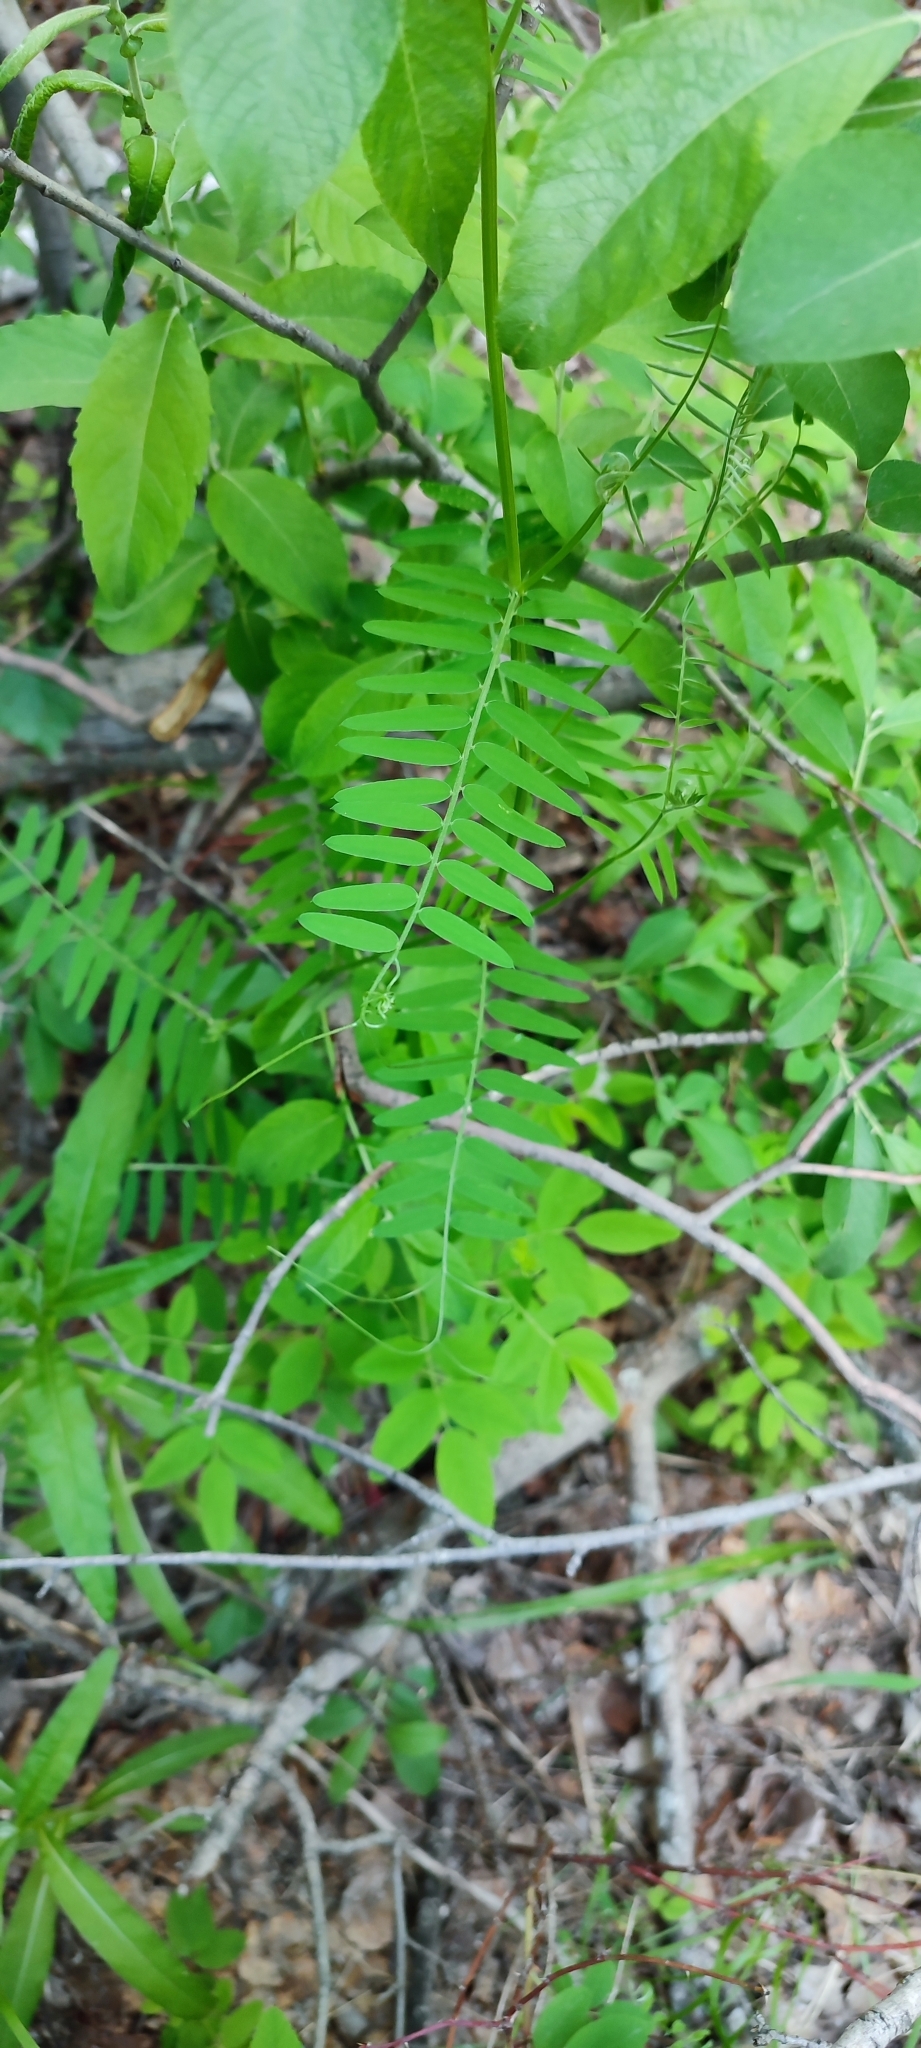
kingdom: Plantae
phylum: Tracheophyta
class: Magnoliopsida
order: Fabales
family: Fabaceae
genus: Vicia
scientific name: Vicia cracca
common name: Bird vetch
